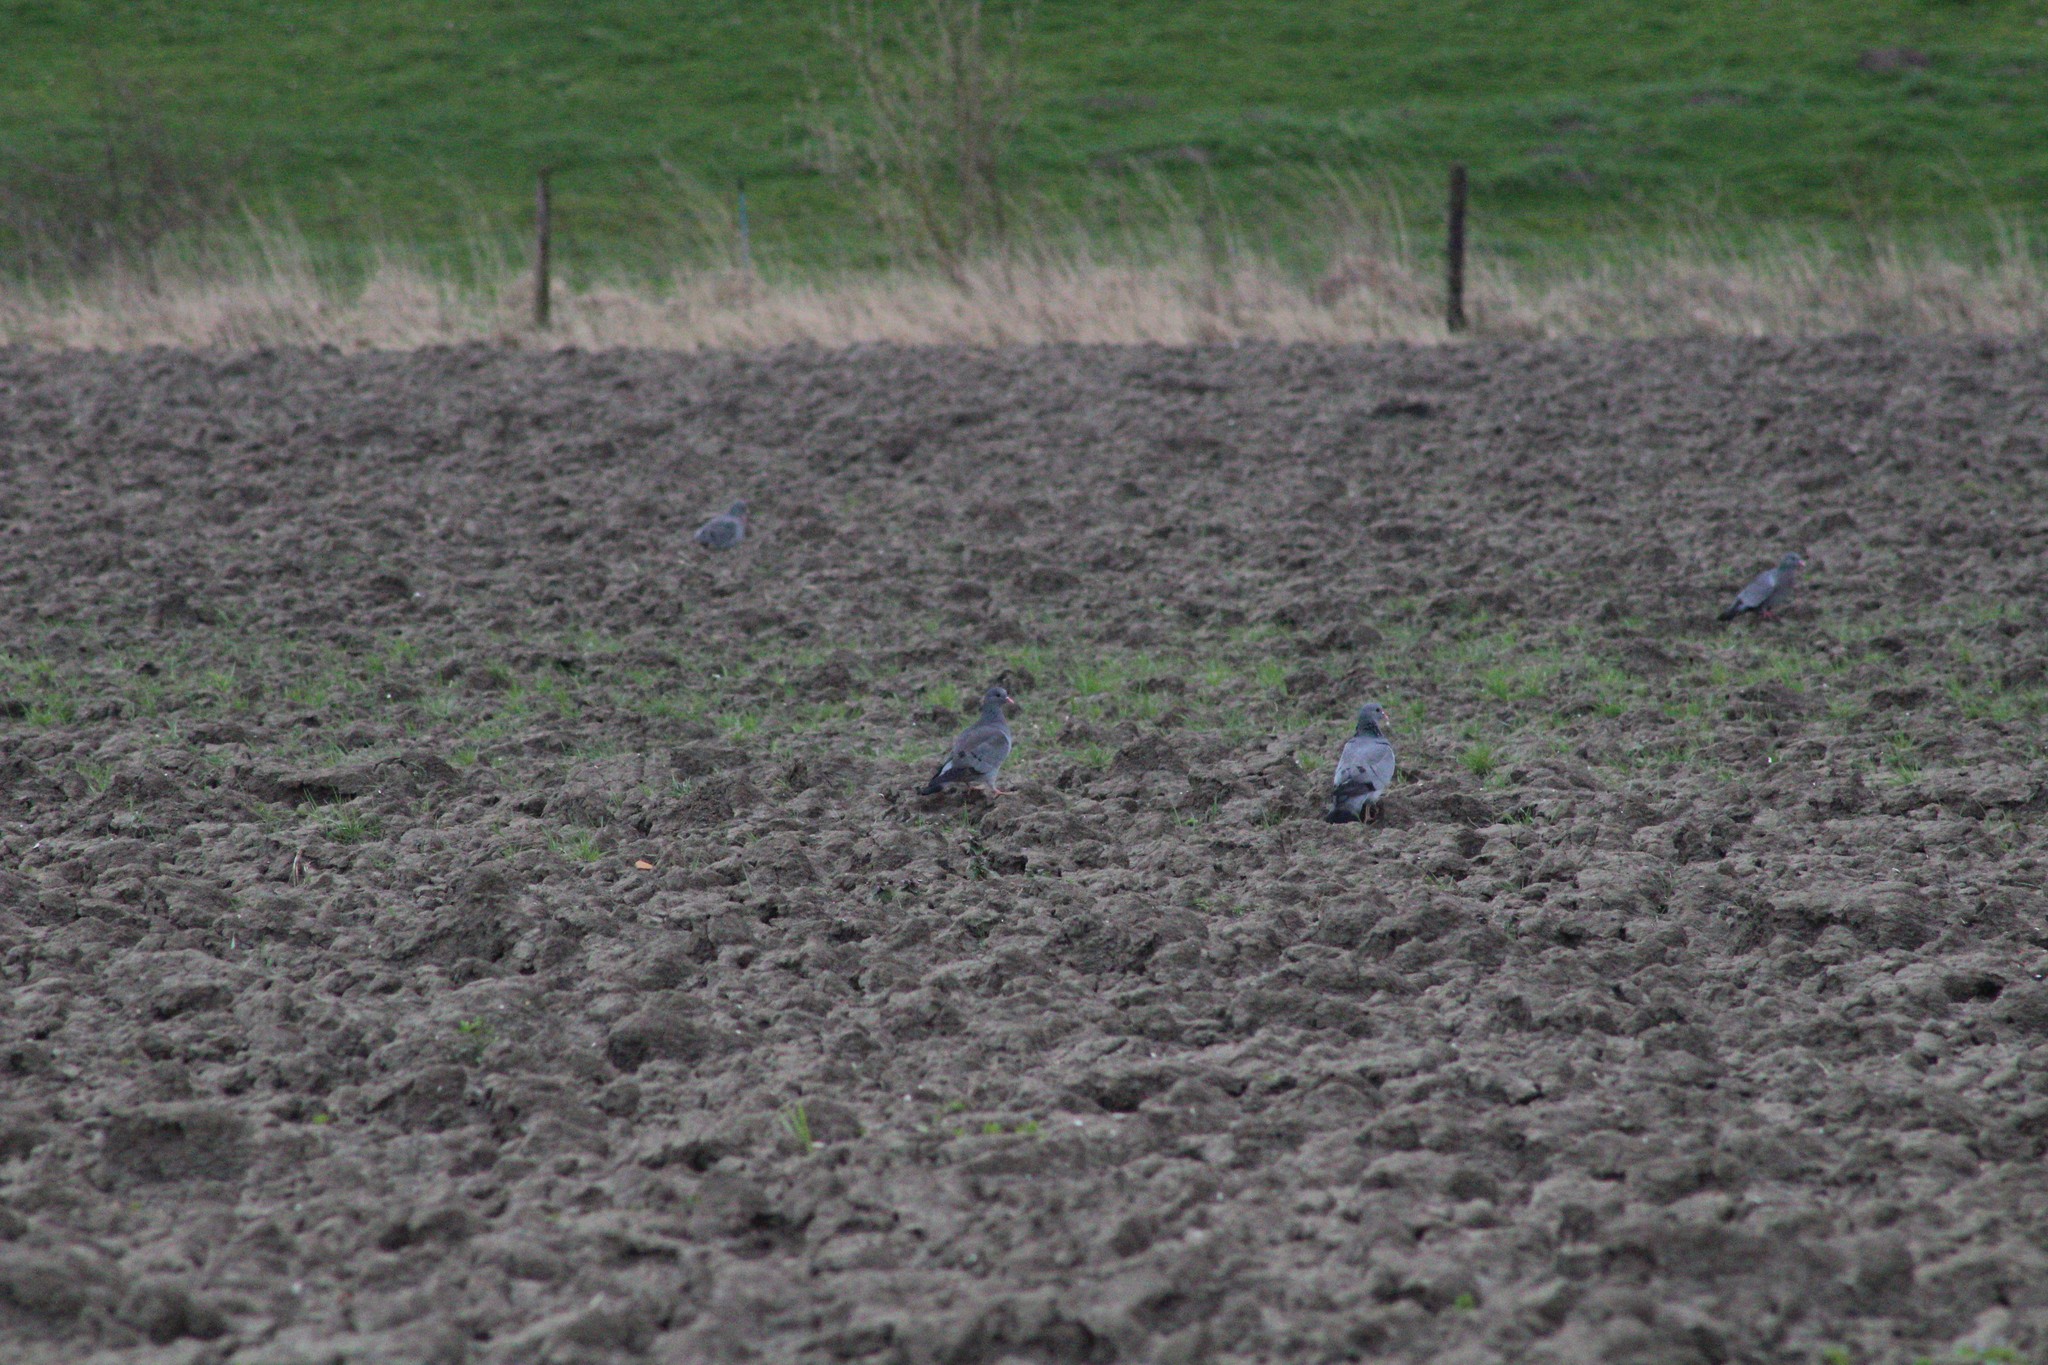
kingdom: Animalia
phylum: Chordata
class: Aves
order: Columbiformes
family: Columbidae
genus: Columba
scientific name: Columba oenas
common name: Stock dove
